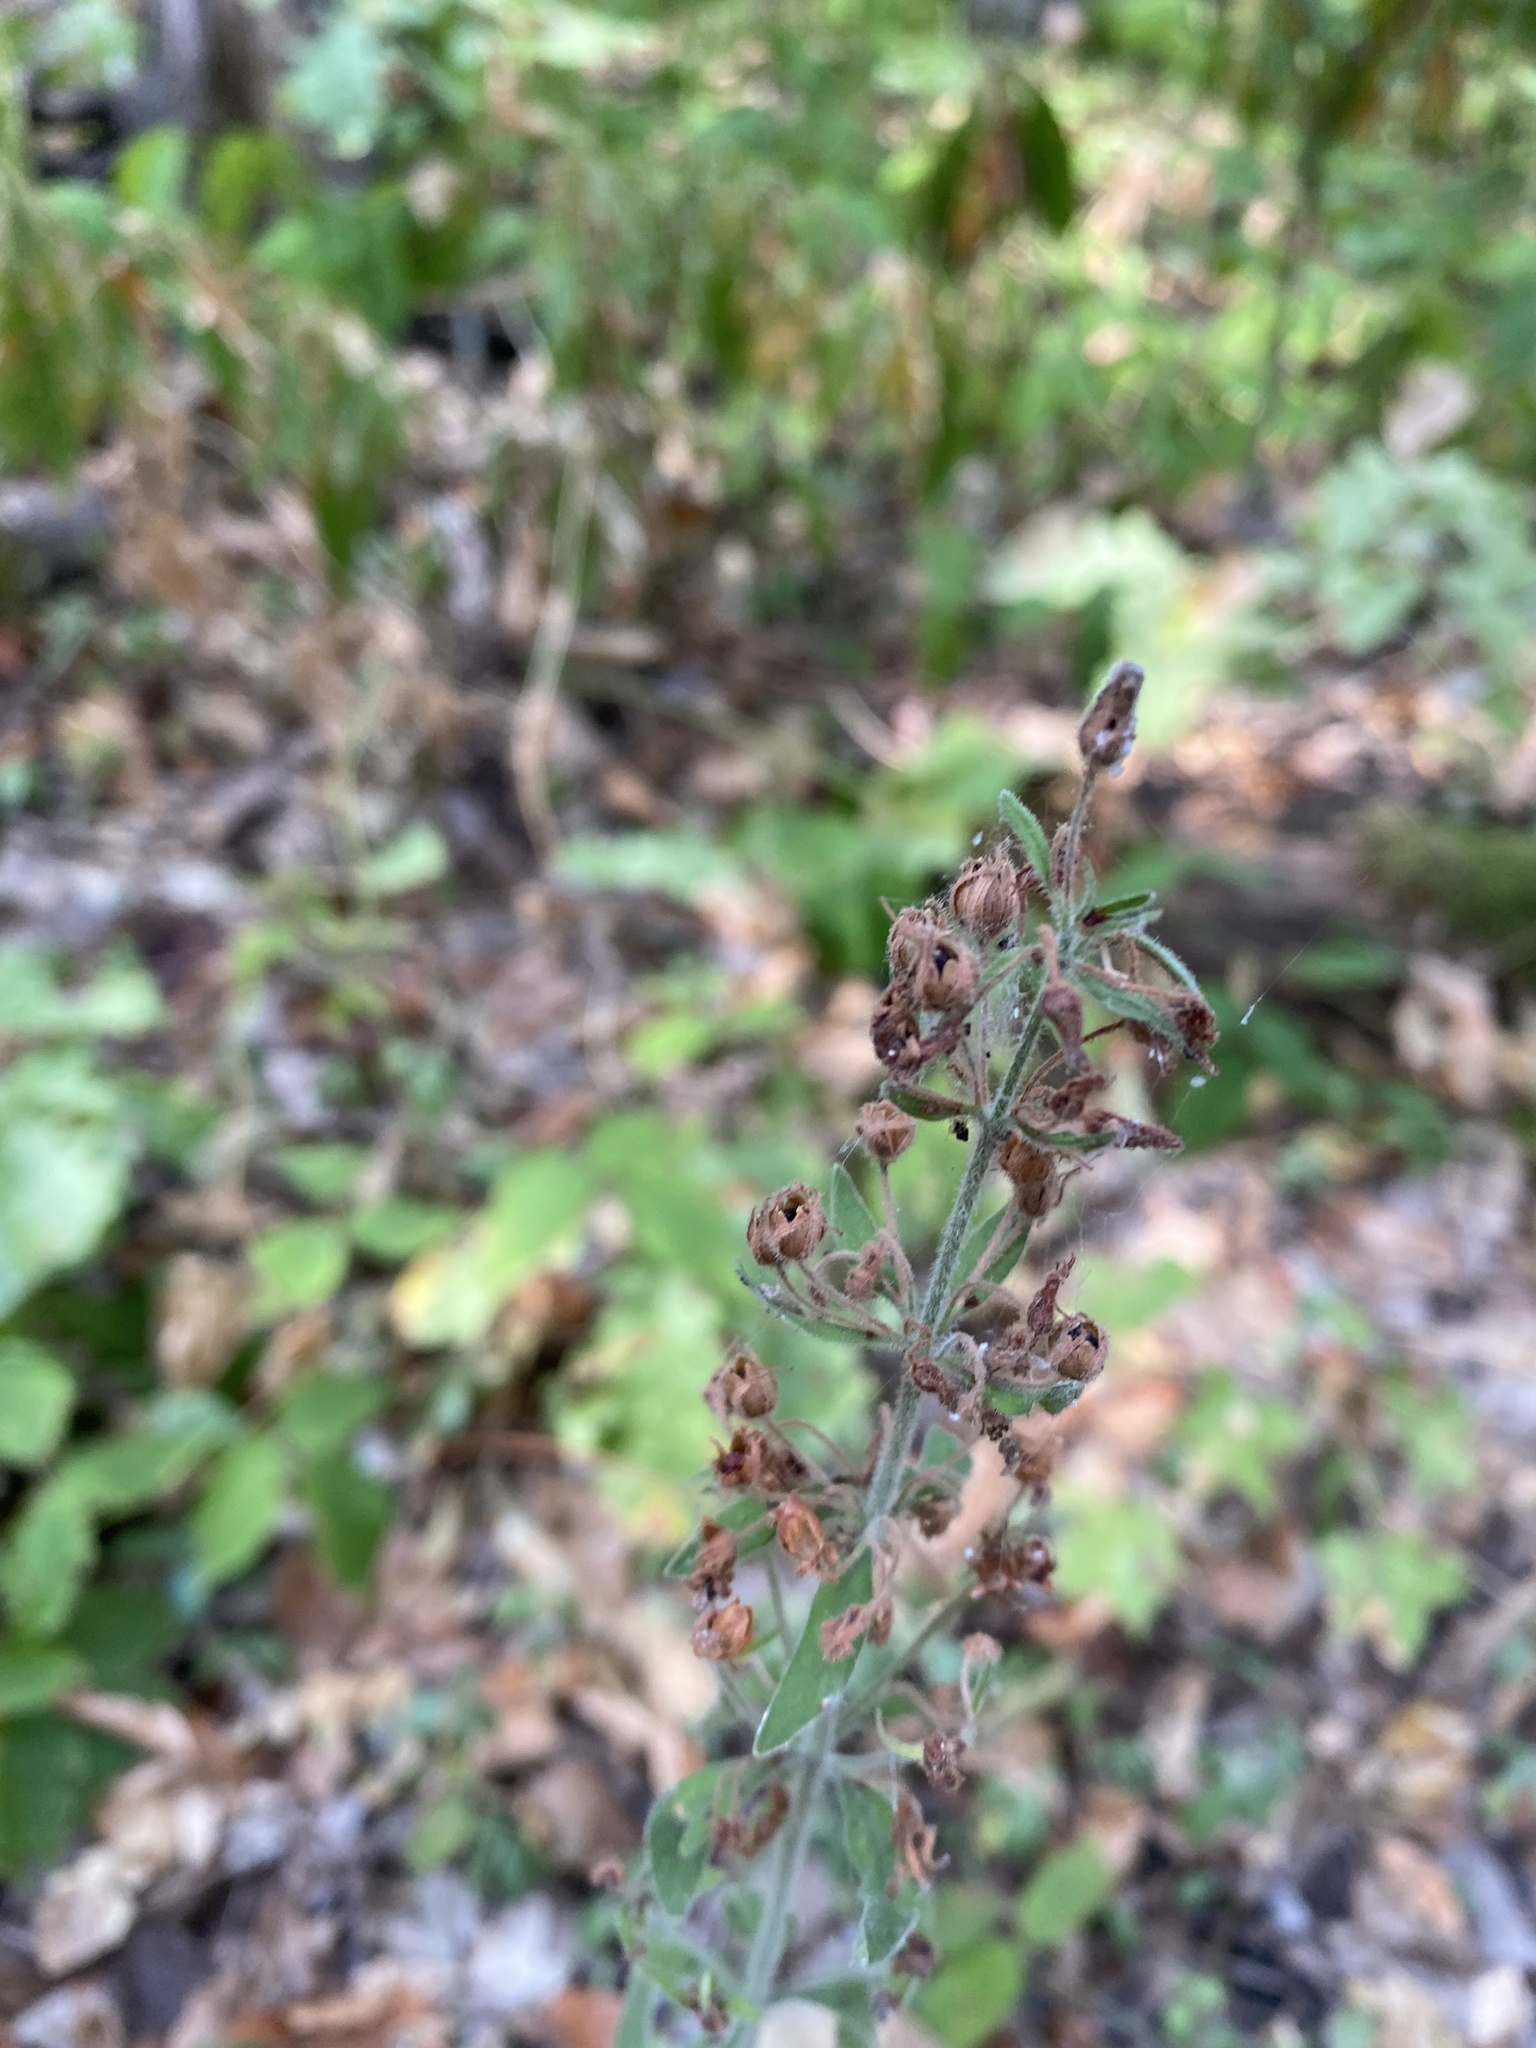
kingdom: Plantae
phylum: Tracheophyta
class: Magnoliopsida
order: Ericales
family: Primulaceae
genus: Lysimachia
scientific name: Lysimachia verticillaris
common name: Yellow loosestrife
